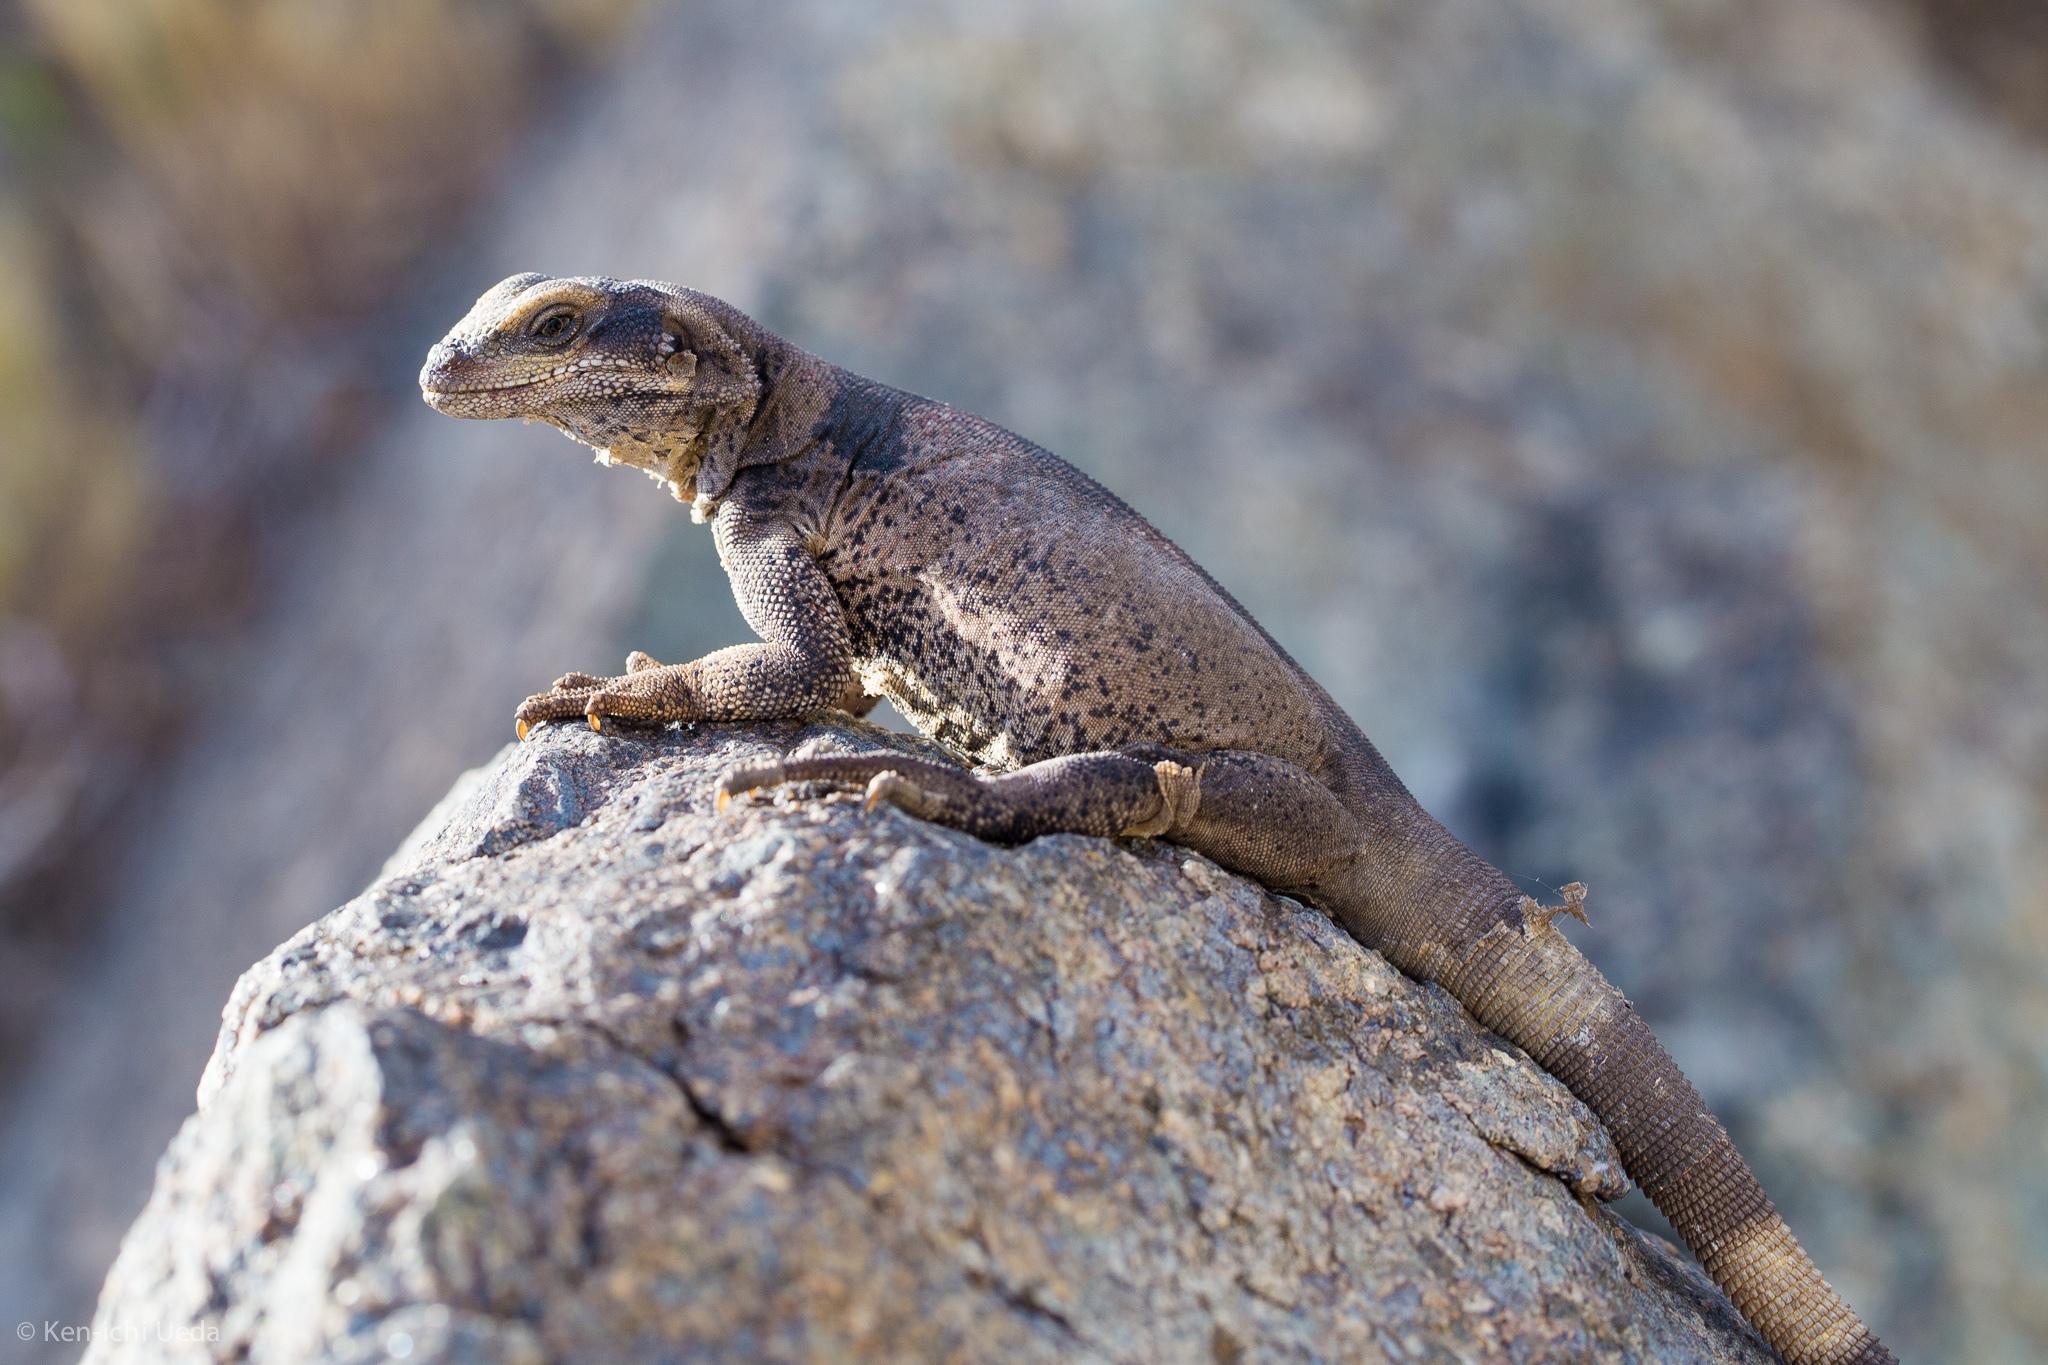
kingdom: Animalia
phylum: Chordata
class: Squamata
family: Iguanidae
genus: Sauromalus
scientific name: Sauromalus ater
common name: Northern chuckwalla
